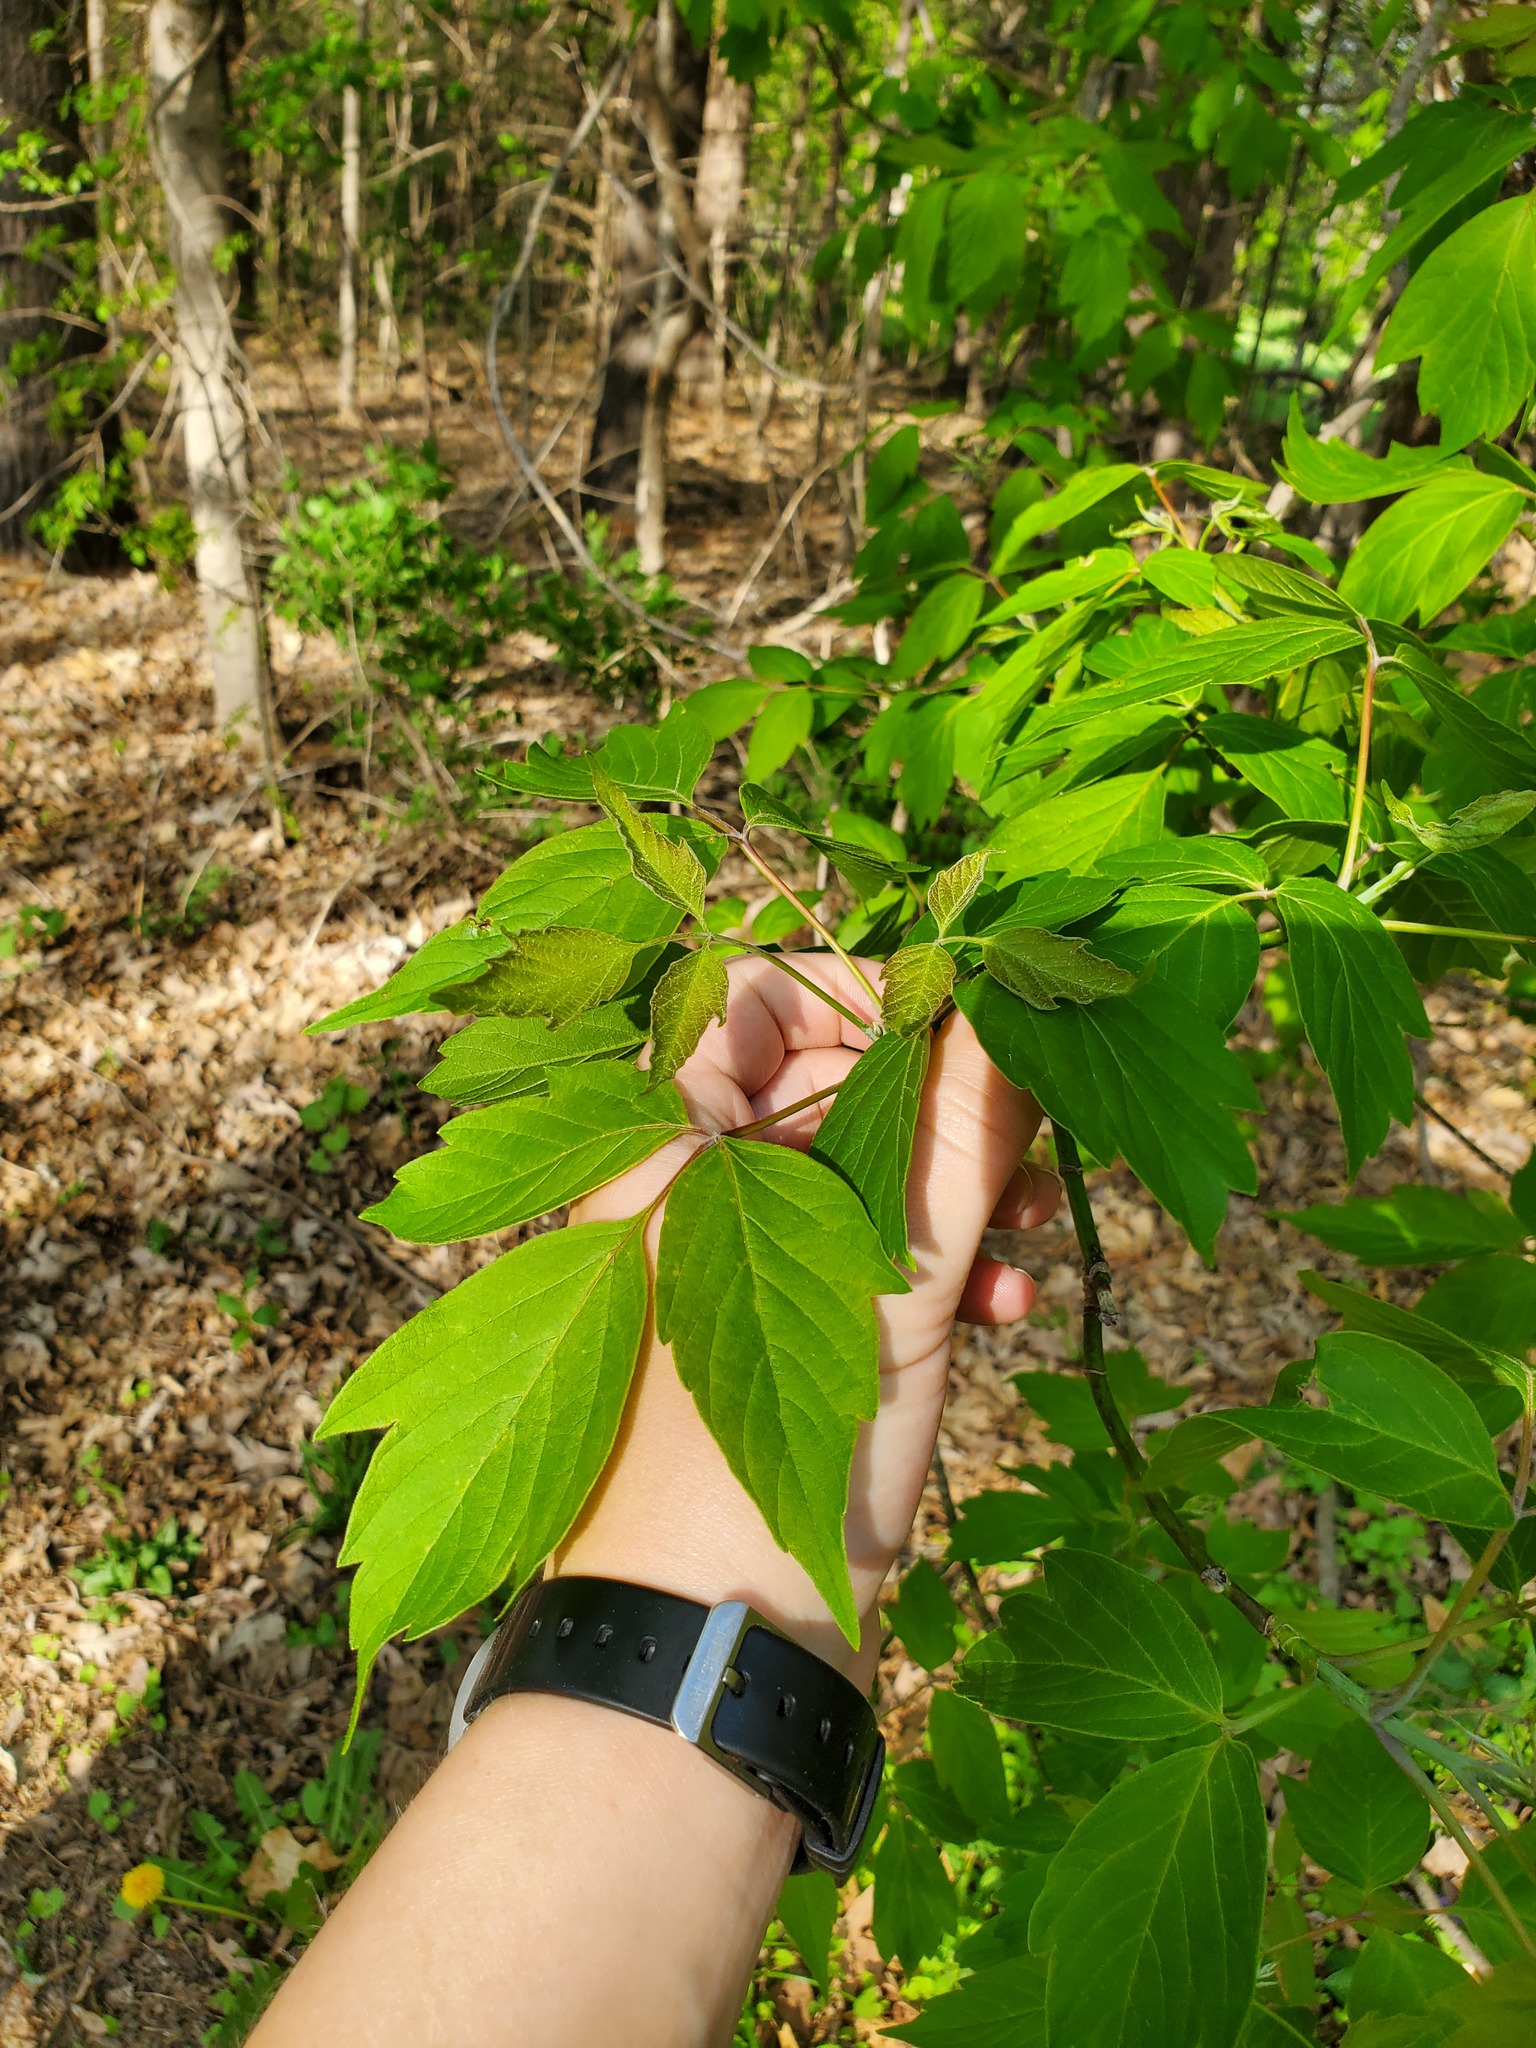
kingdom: Plantae
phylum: Tracheophyta
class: Magnoliopsida
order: Sapindales
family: Sapindaceae
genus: Acer
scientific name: Acer negundo
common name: Ashleaf maple
